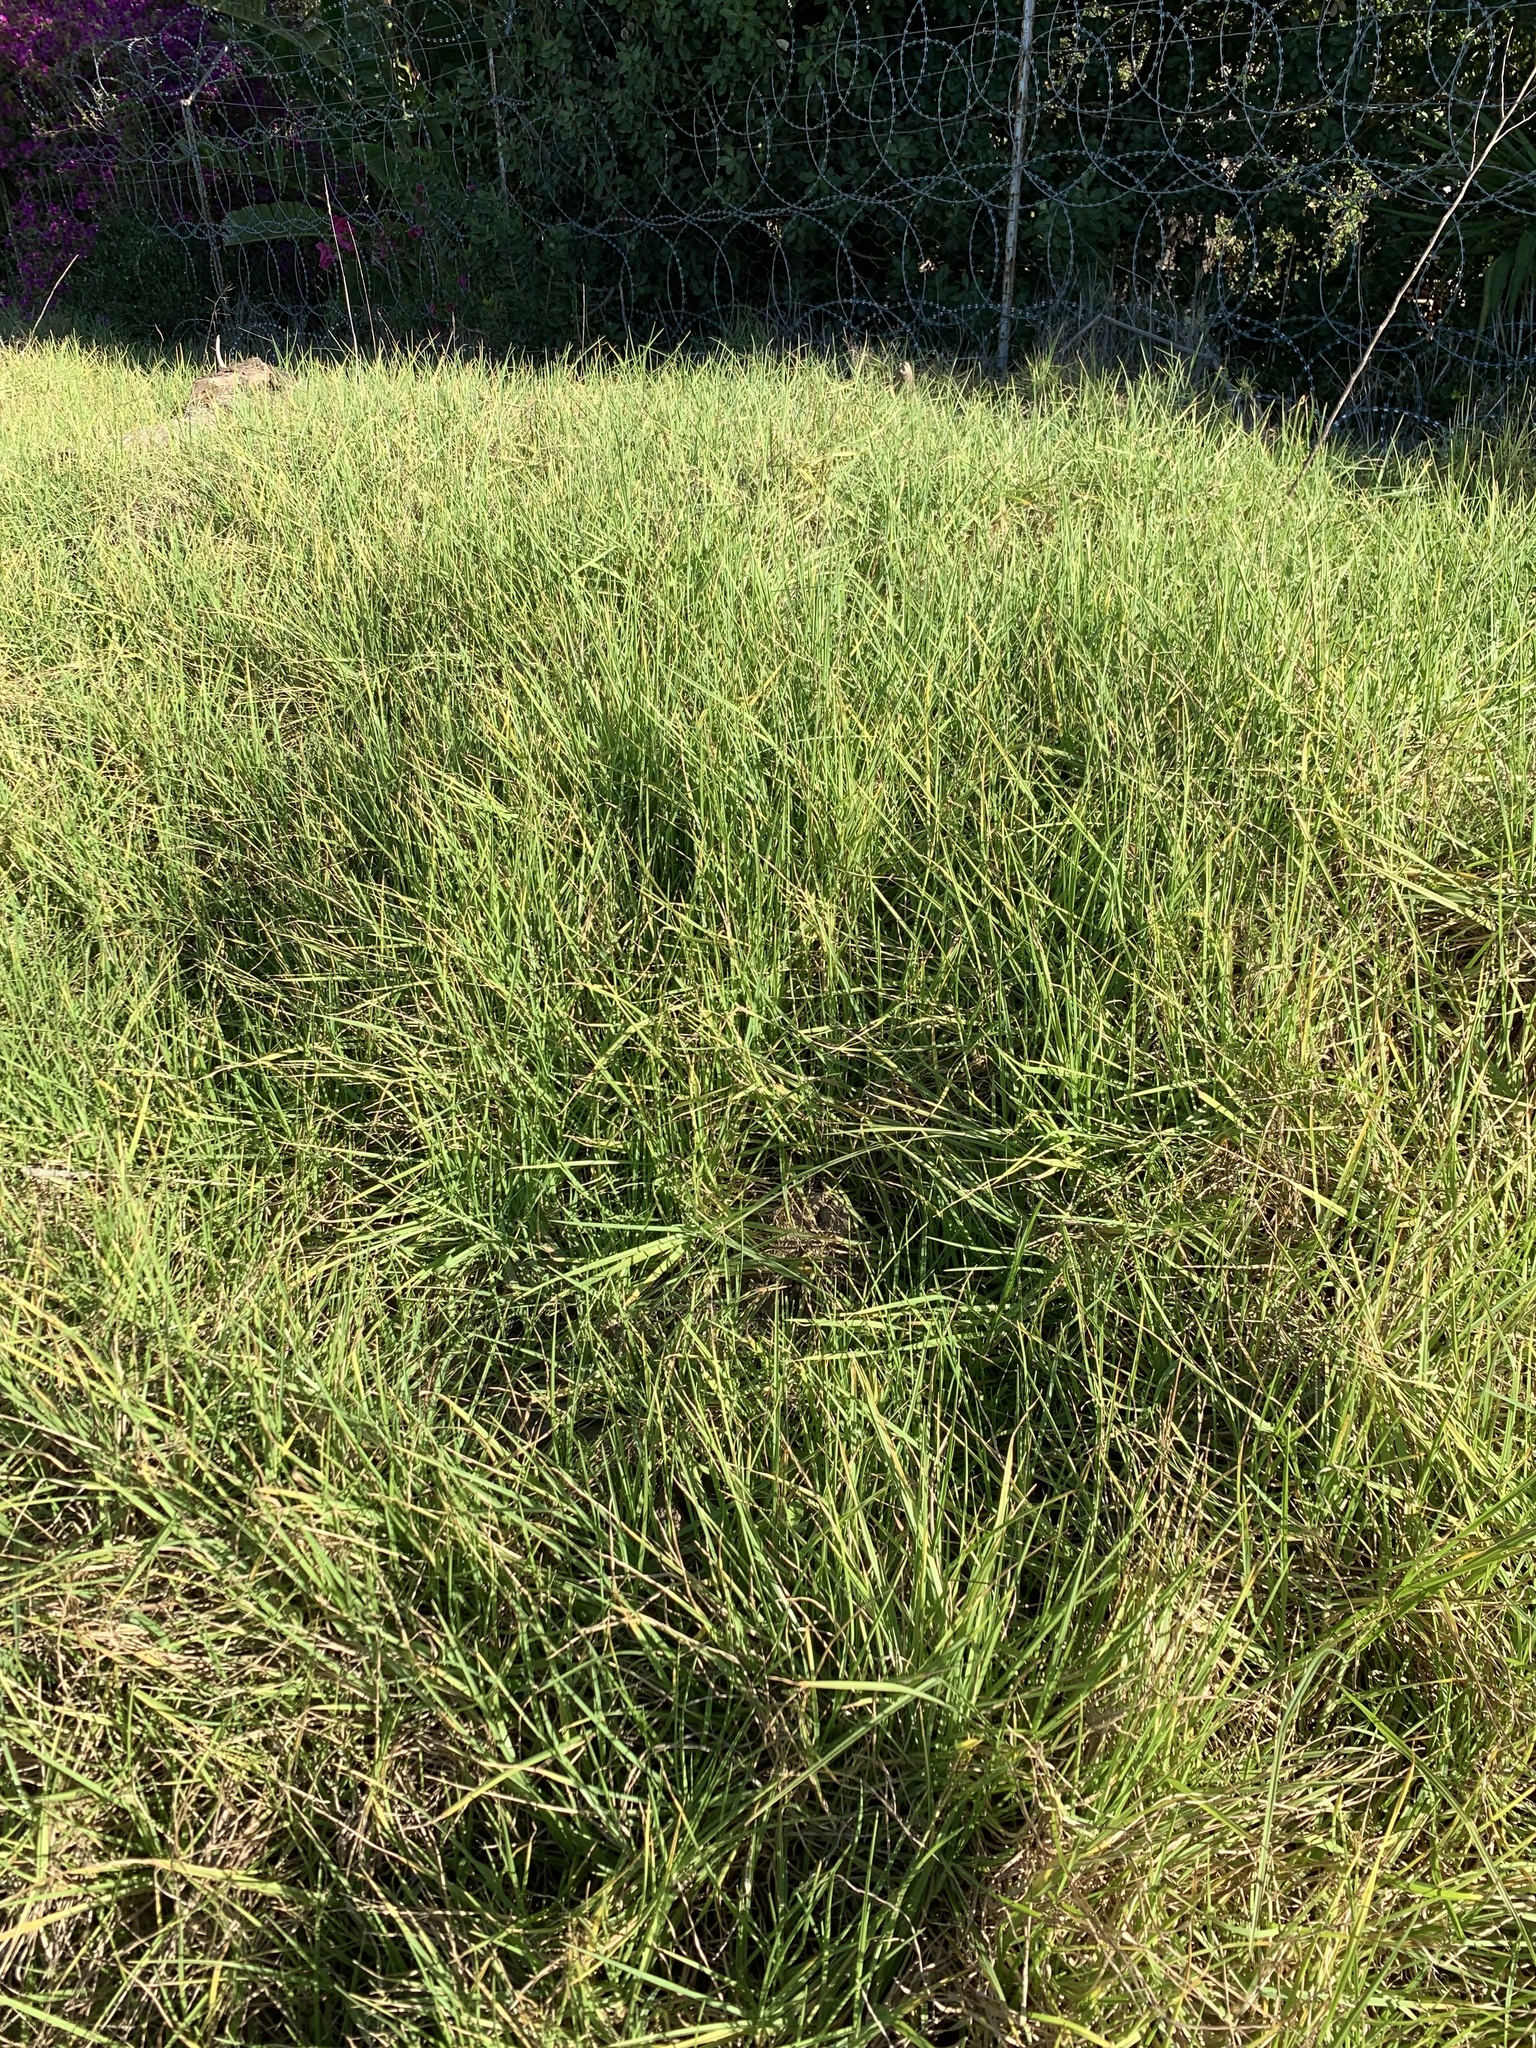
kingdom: Plantae
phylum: Tracheophyta
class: Liliopsida
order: Poales
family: Poaceae
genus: Cenchrus
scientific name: Cenchrus clandestinus
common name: Kikuyugrass
